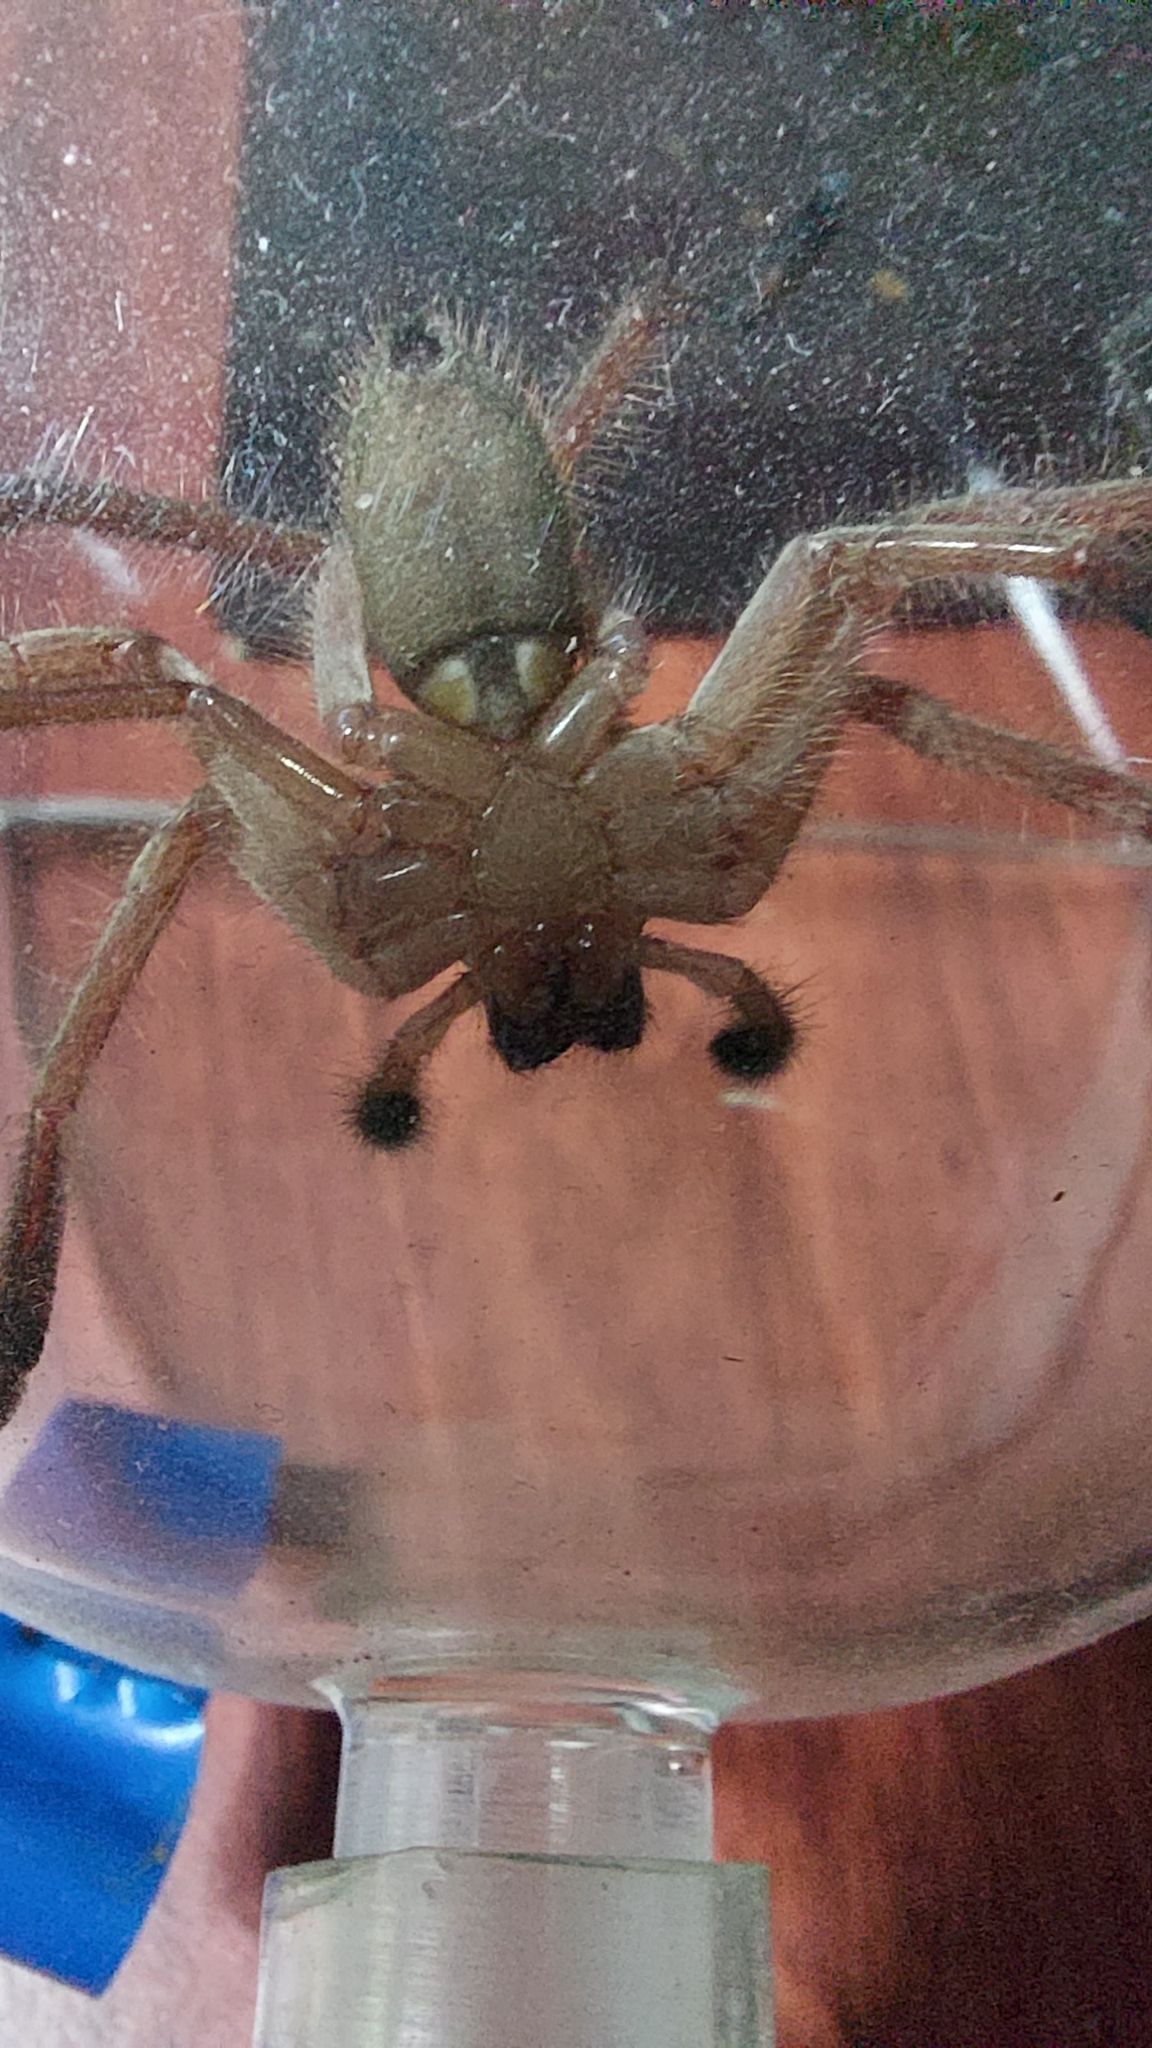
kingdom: Animalia
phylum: Arthropoda
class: Arachnida
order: Araneae
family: Sparassidae
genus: Delena
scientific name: Delena cancerides
